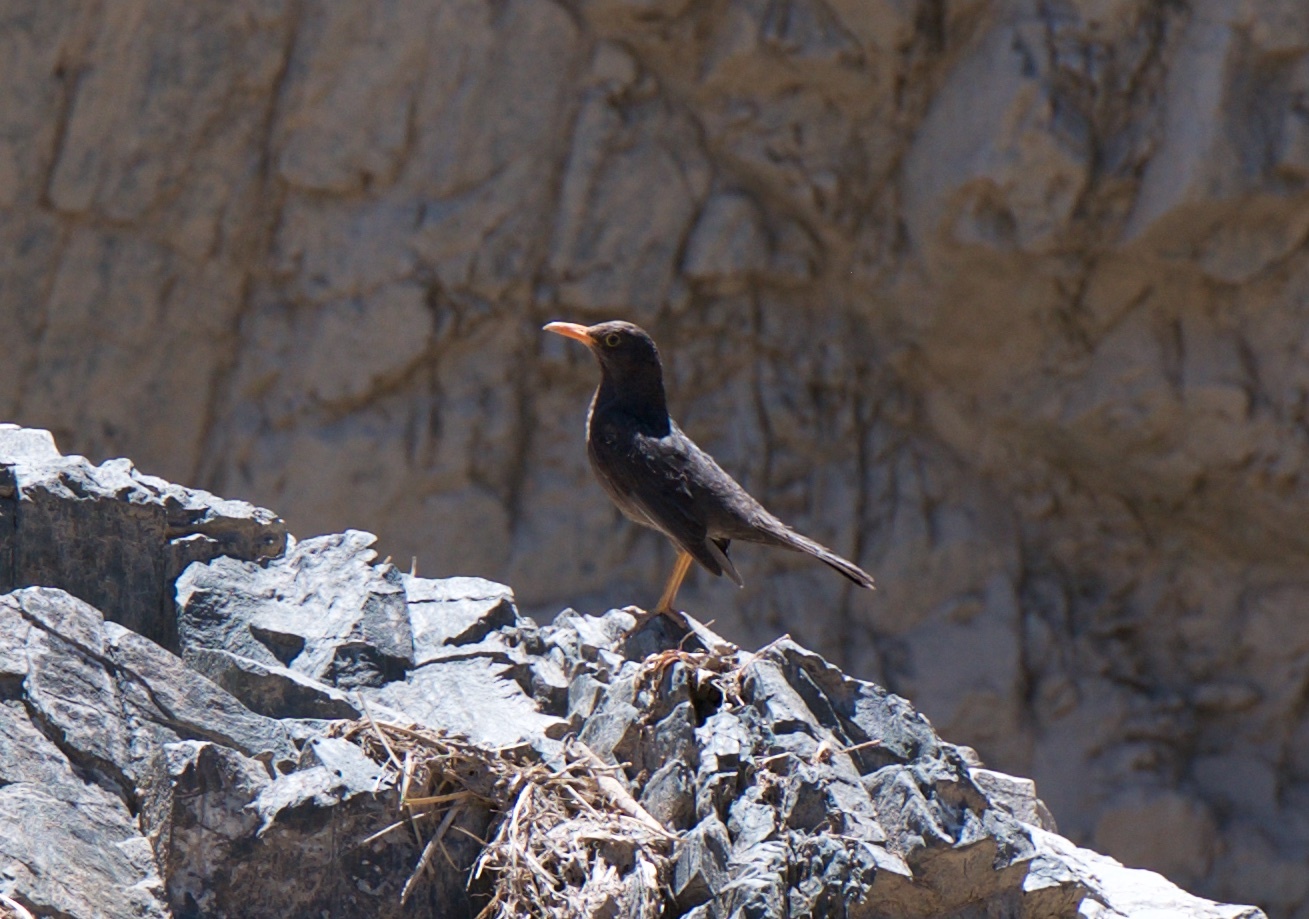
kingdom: Animalia
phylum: Chordata
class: Aves
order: Passeriformes
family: Turdidae
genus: Turdus
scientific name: Turdus chiguanco
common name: Chiguanco thrush
